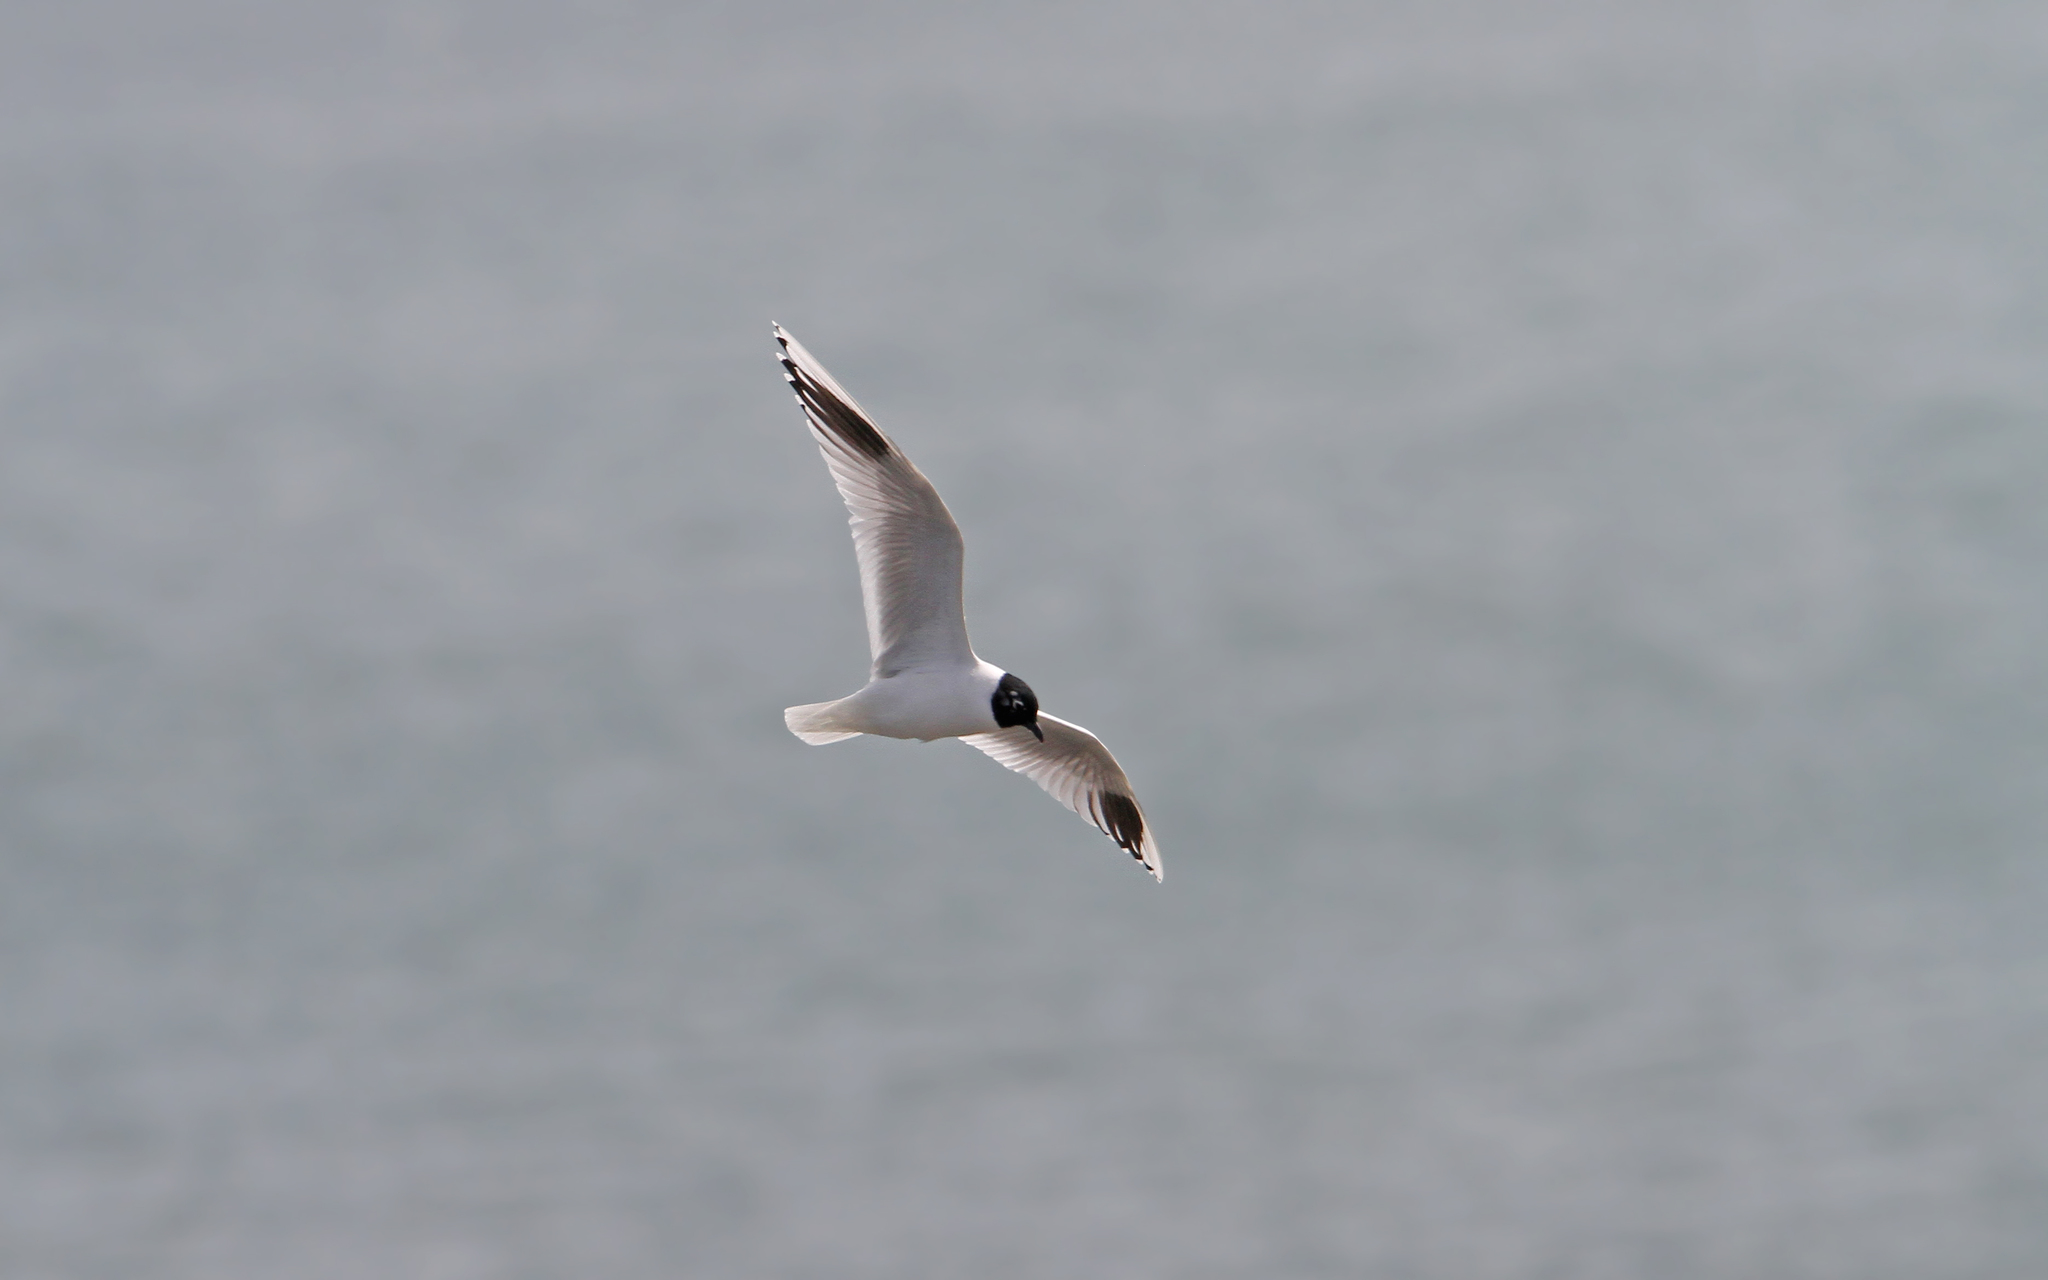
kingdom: Animalia
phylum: Chordata
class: Aves
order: Charadriiformes
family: Laridae
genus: Chroicocephalus
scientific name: Chroicocephalus saundersi
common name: Saunders's gull
